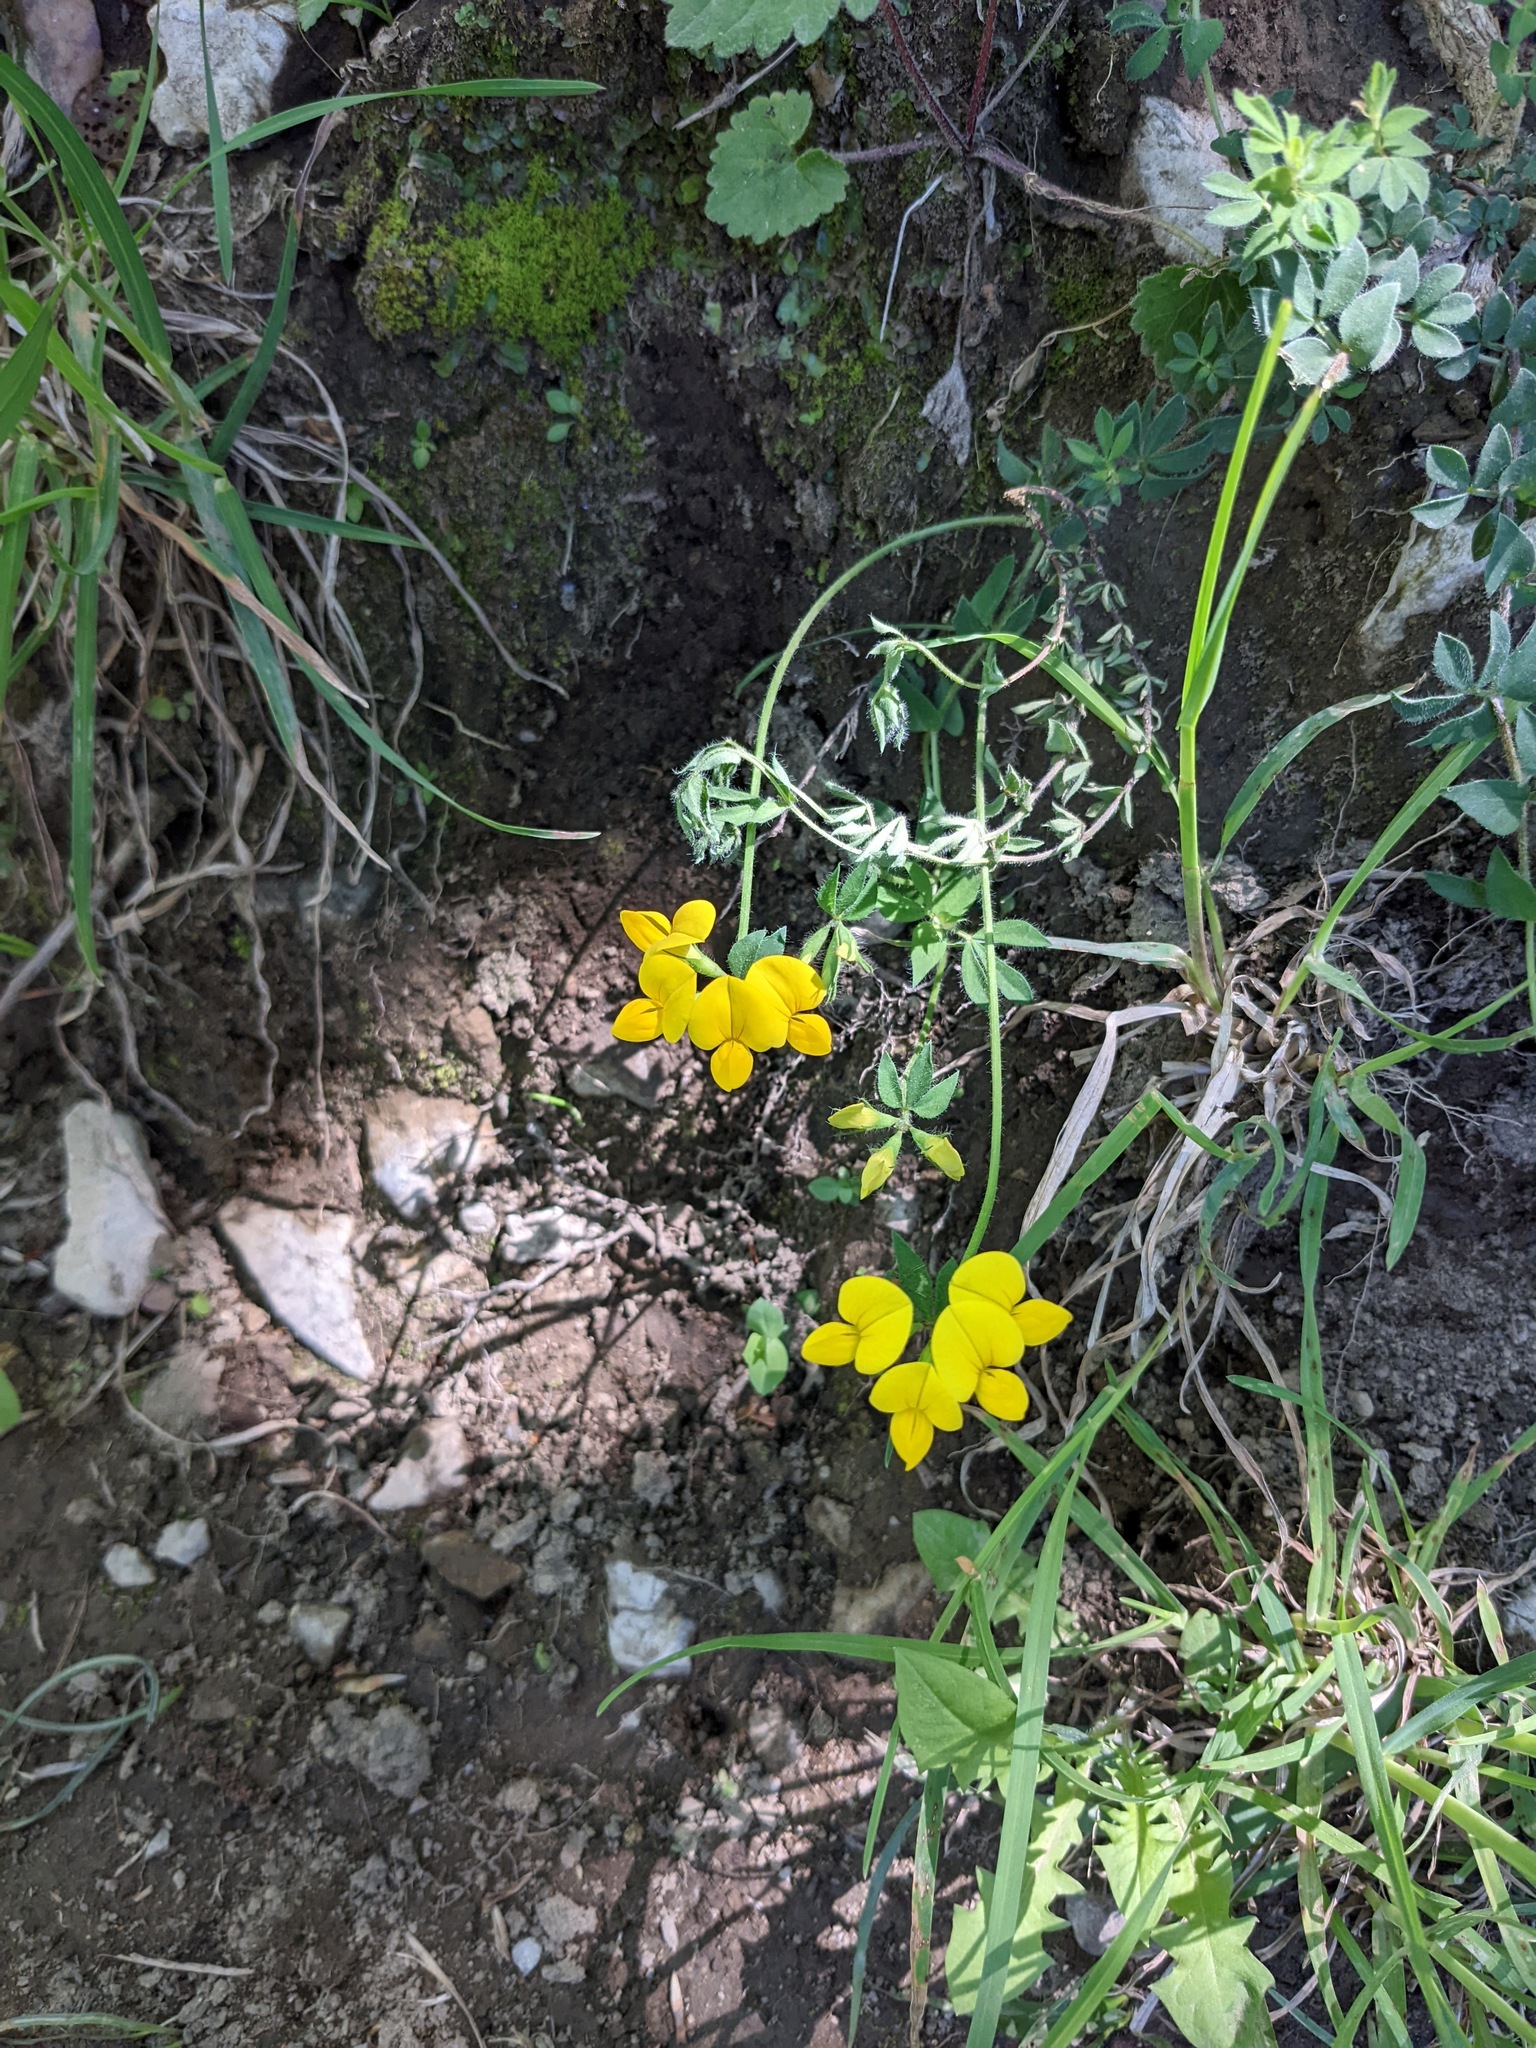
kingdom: Plantae
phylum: Tracheophyta
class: Magnoliopsida
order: Fabales
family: Fabaceae
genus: Lotus
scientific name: Lotus corniculatus
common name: Common bird's-foot-trefoil
